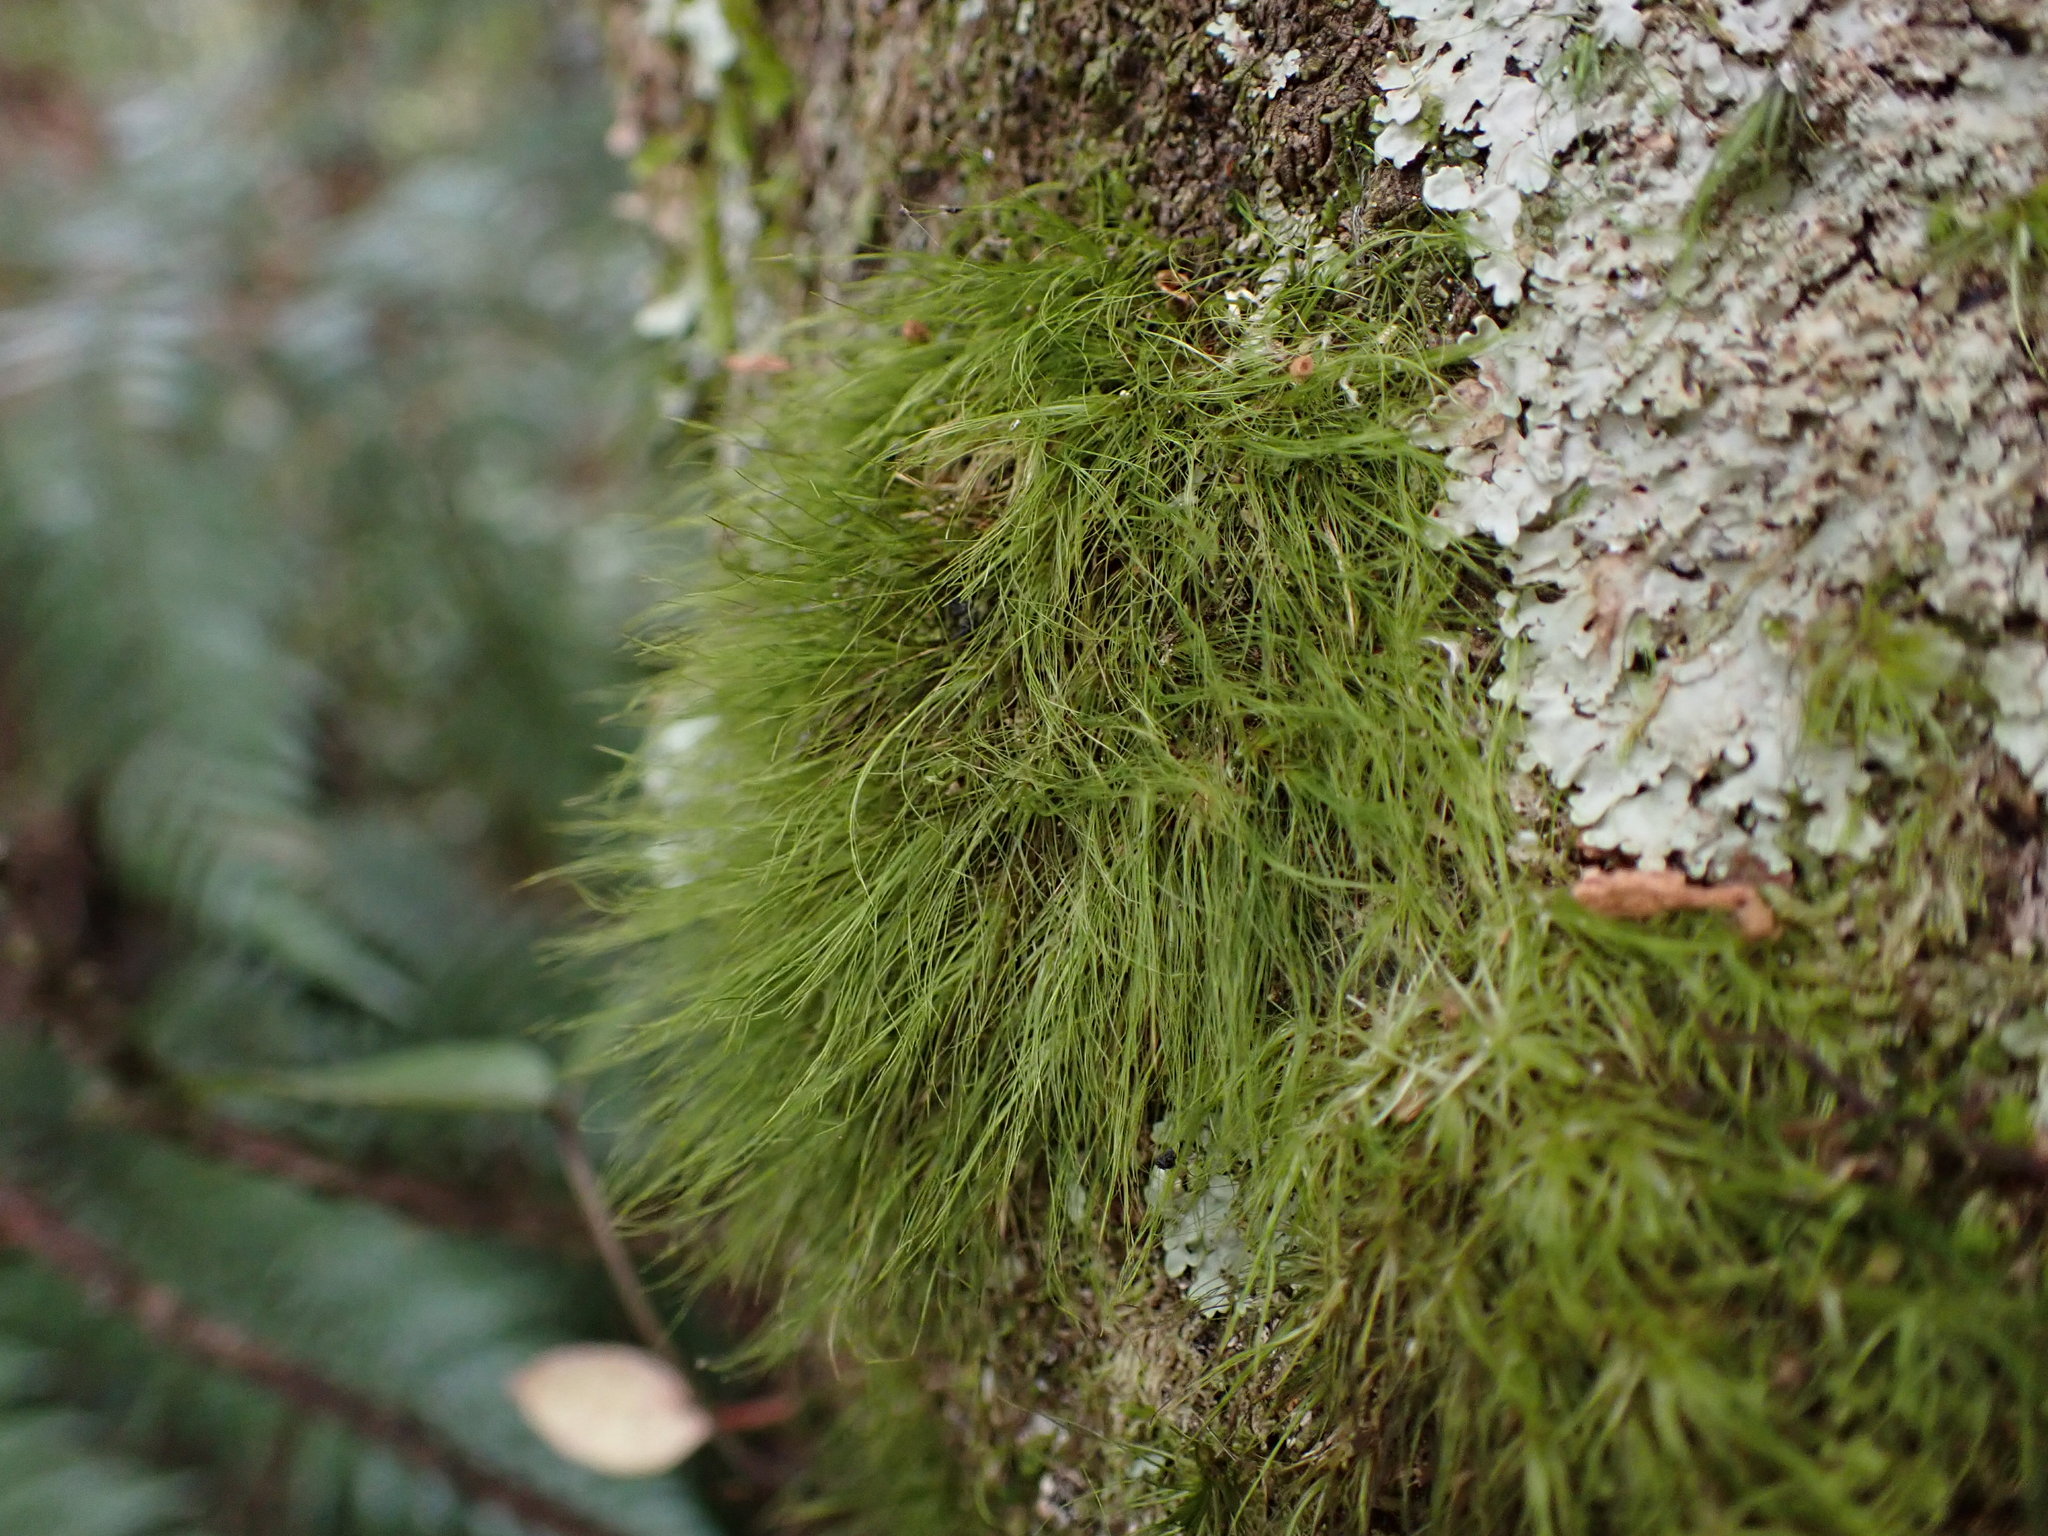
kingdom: Plantae
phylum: Bryophyta
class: Bryopsida
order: Dicranales
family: Dicranaceae
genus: Dicranoloma
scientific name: Dicranoloma menziesii
